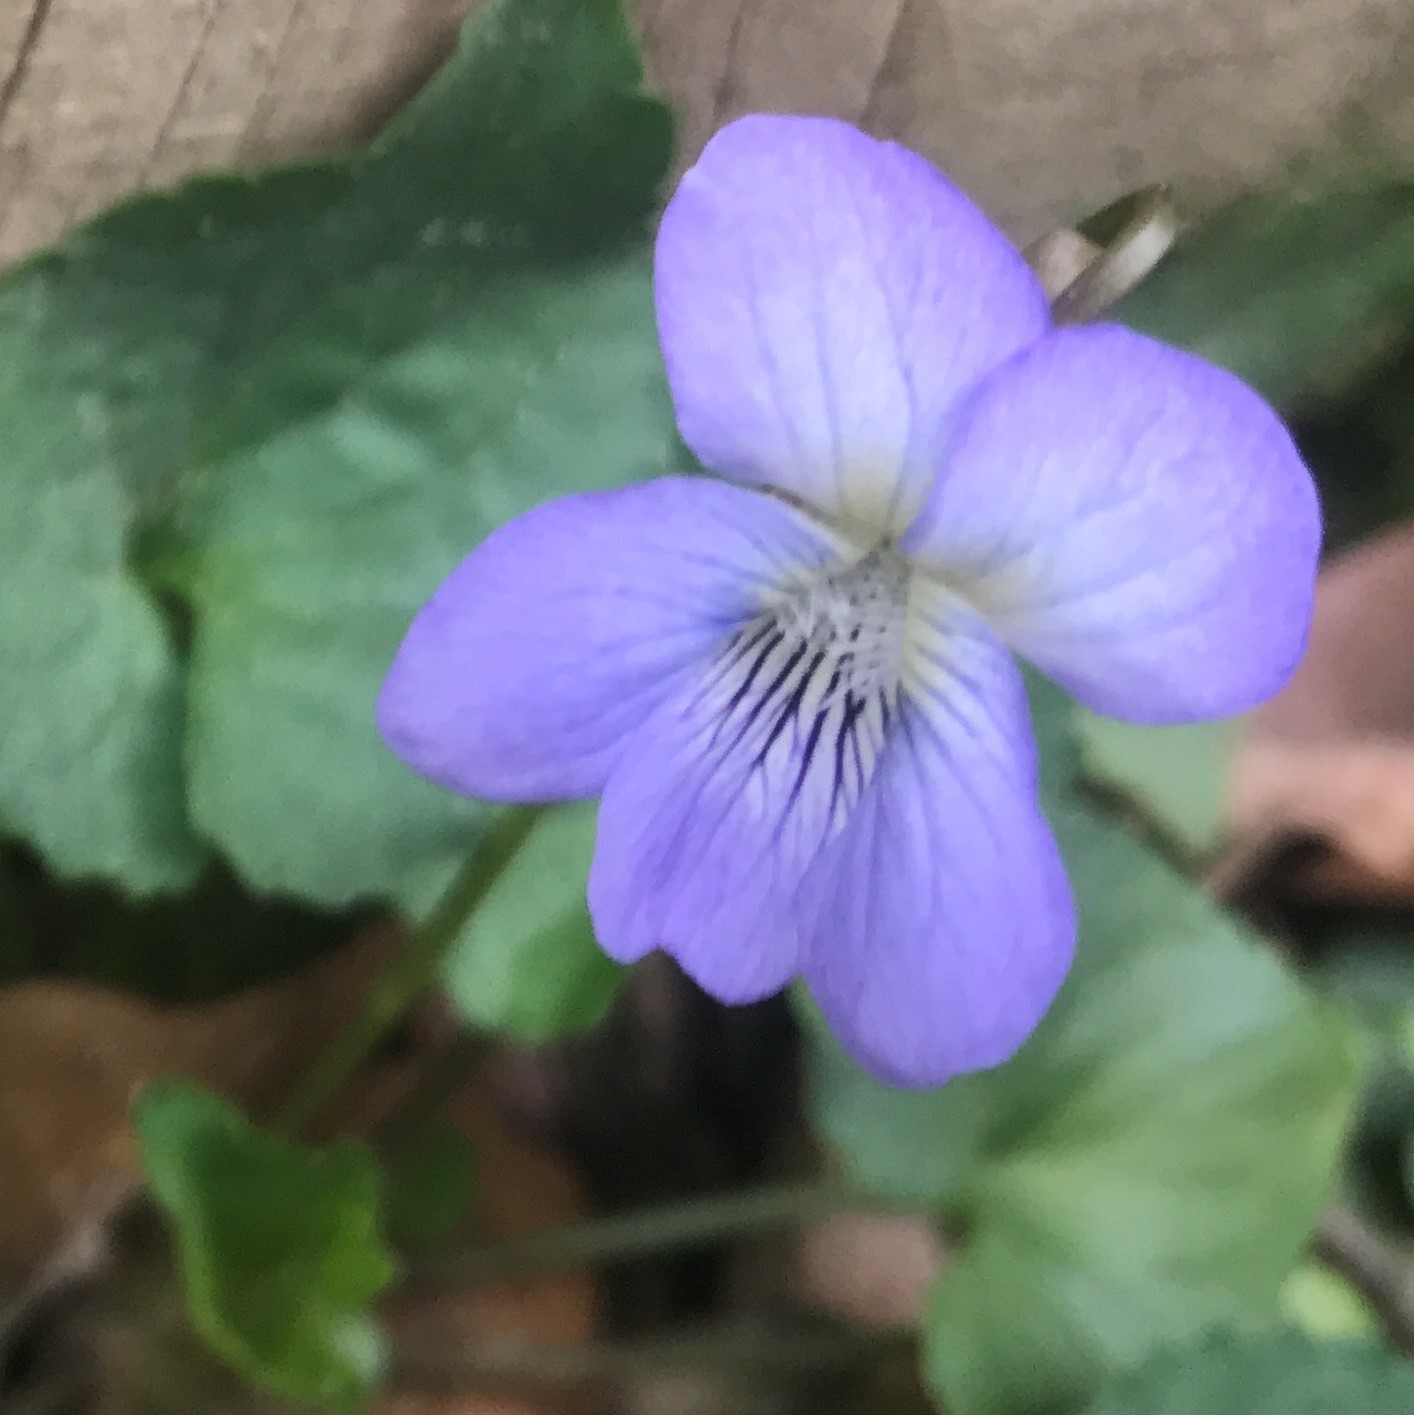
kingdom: Plantae
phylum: Tracheophyta
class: Magnoliopsida
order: Malpighiales
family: Violaceae
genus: Viola
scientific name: Viola missouriensis
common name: Missouri violet
